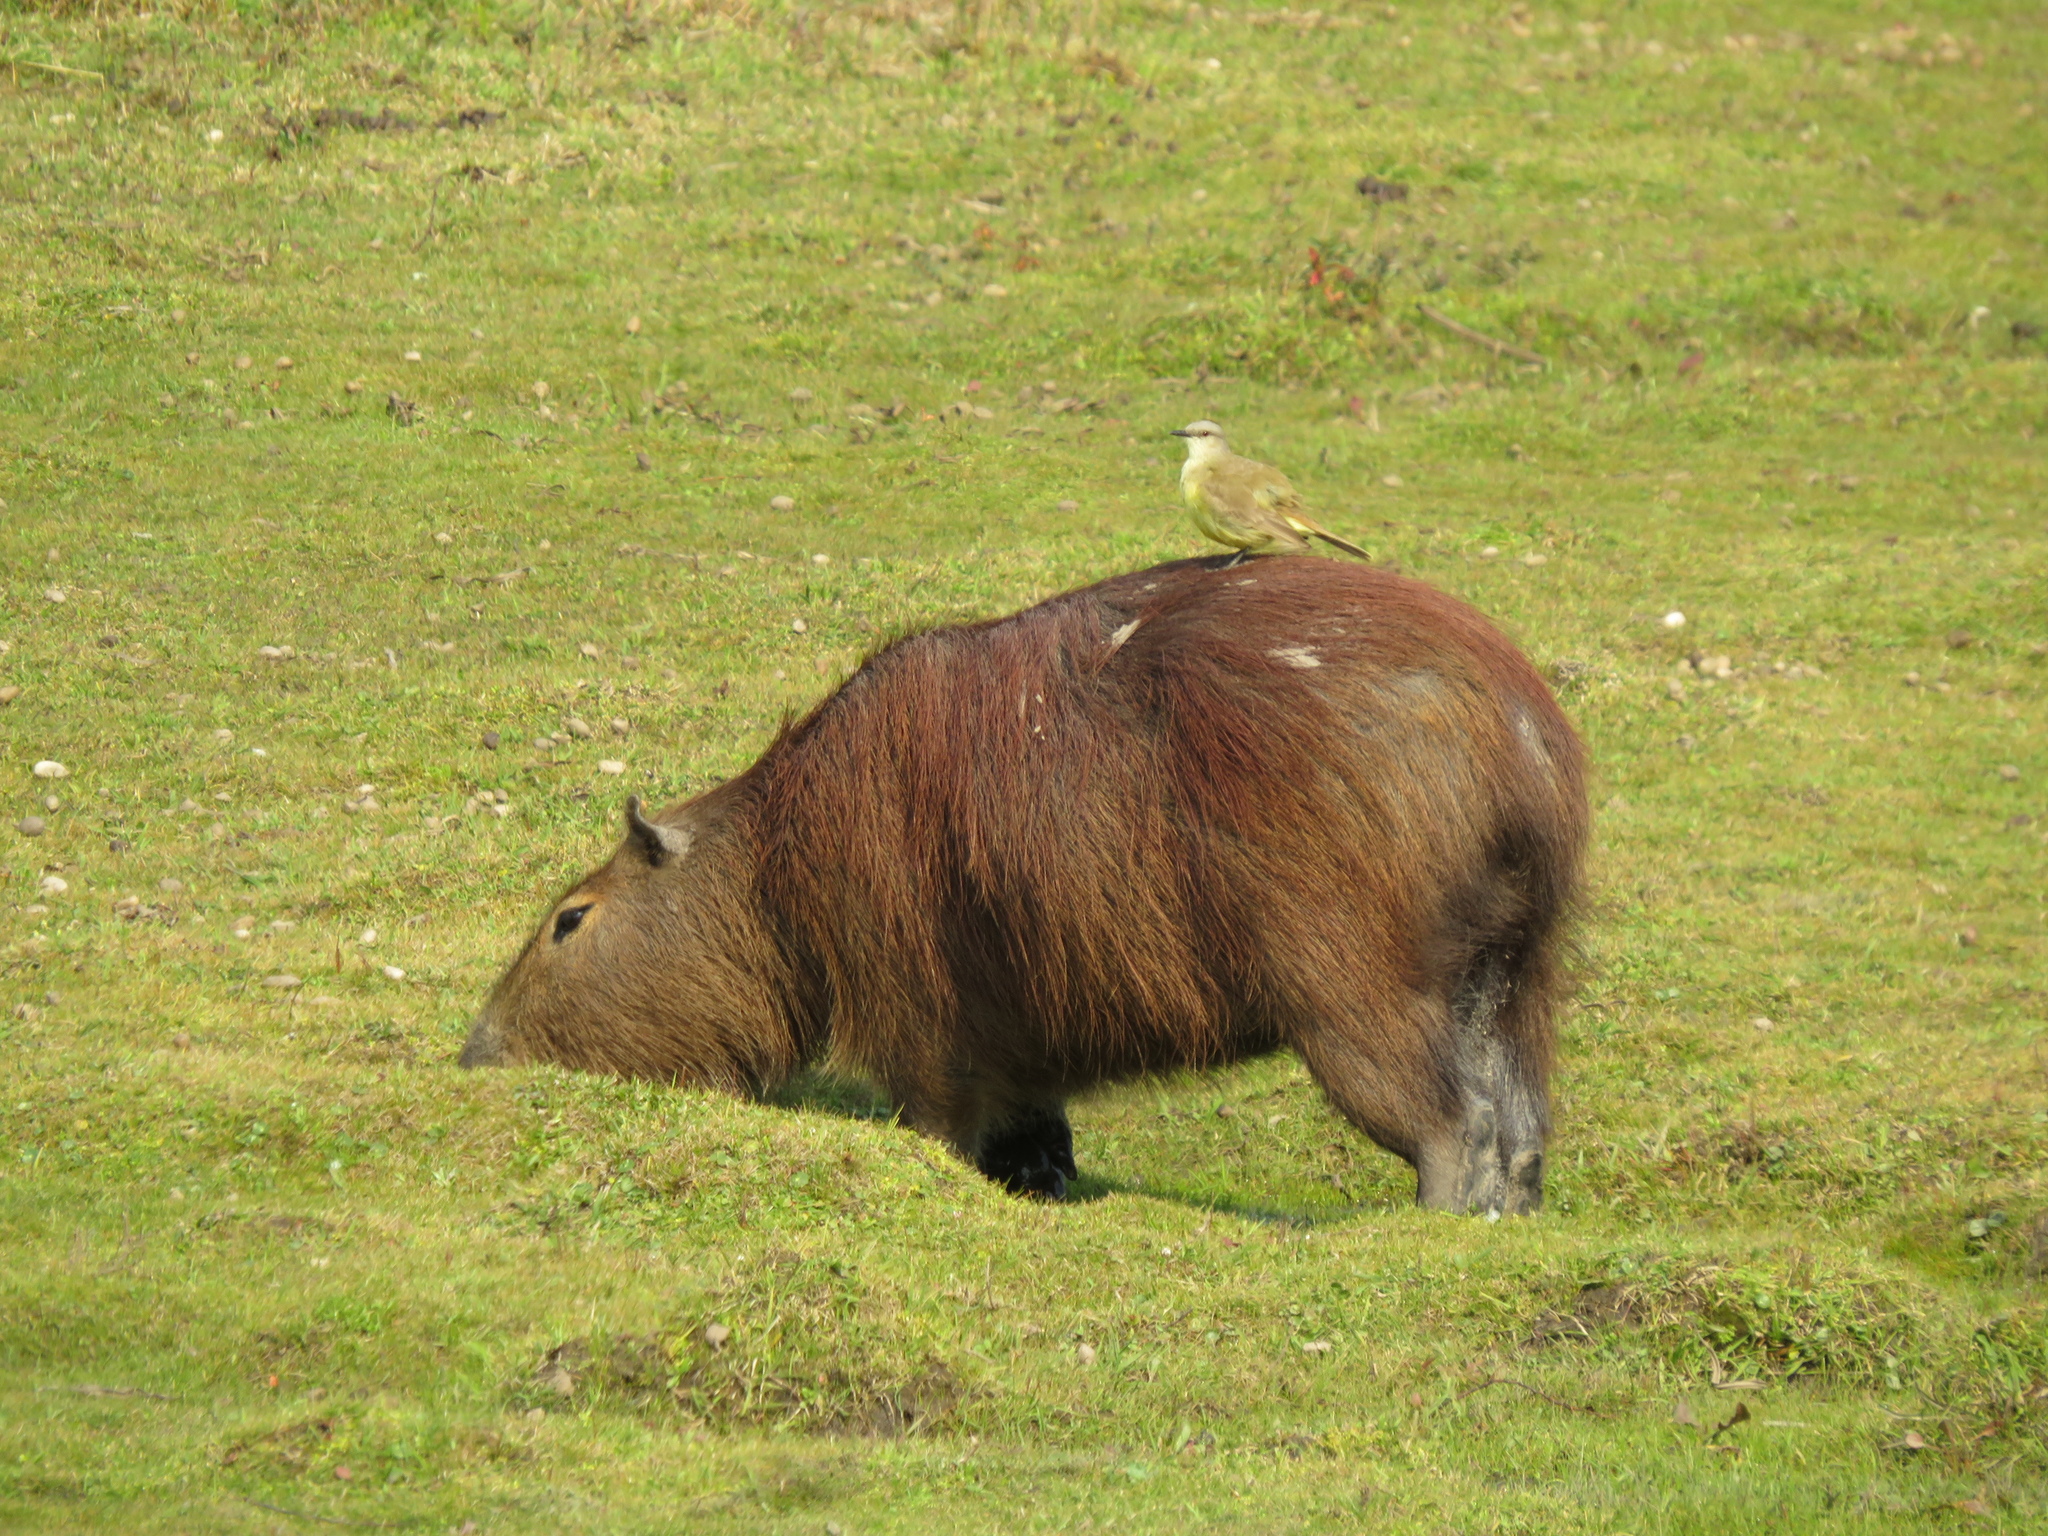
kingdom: Animalia
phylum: Chordata
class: Mammalia
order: Rodentia
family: Caviidae
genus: Hydrochoerus
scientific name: Hydrochoerus hydrochaeris
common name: Capybara
